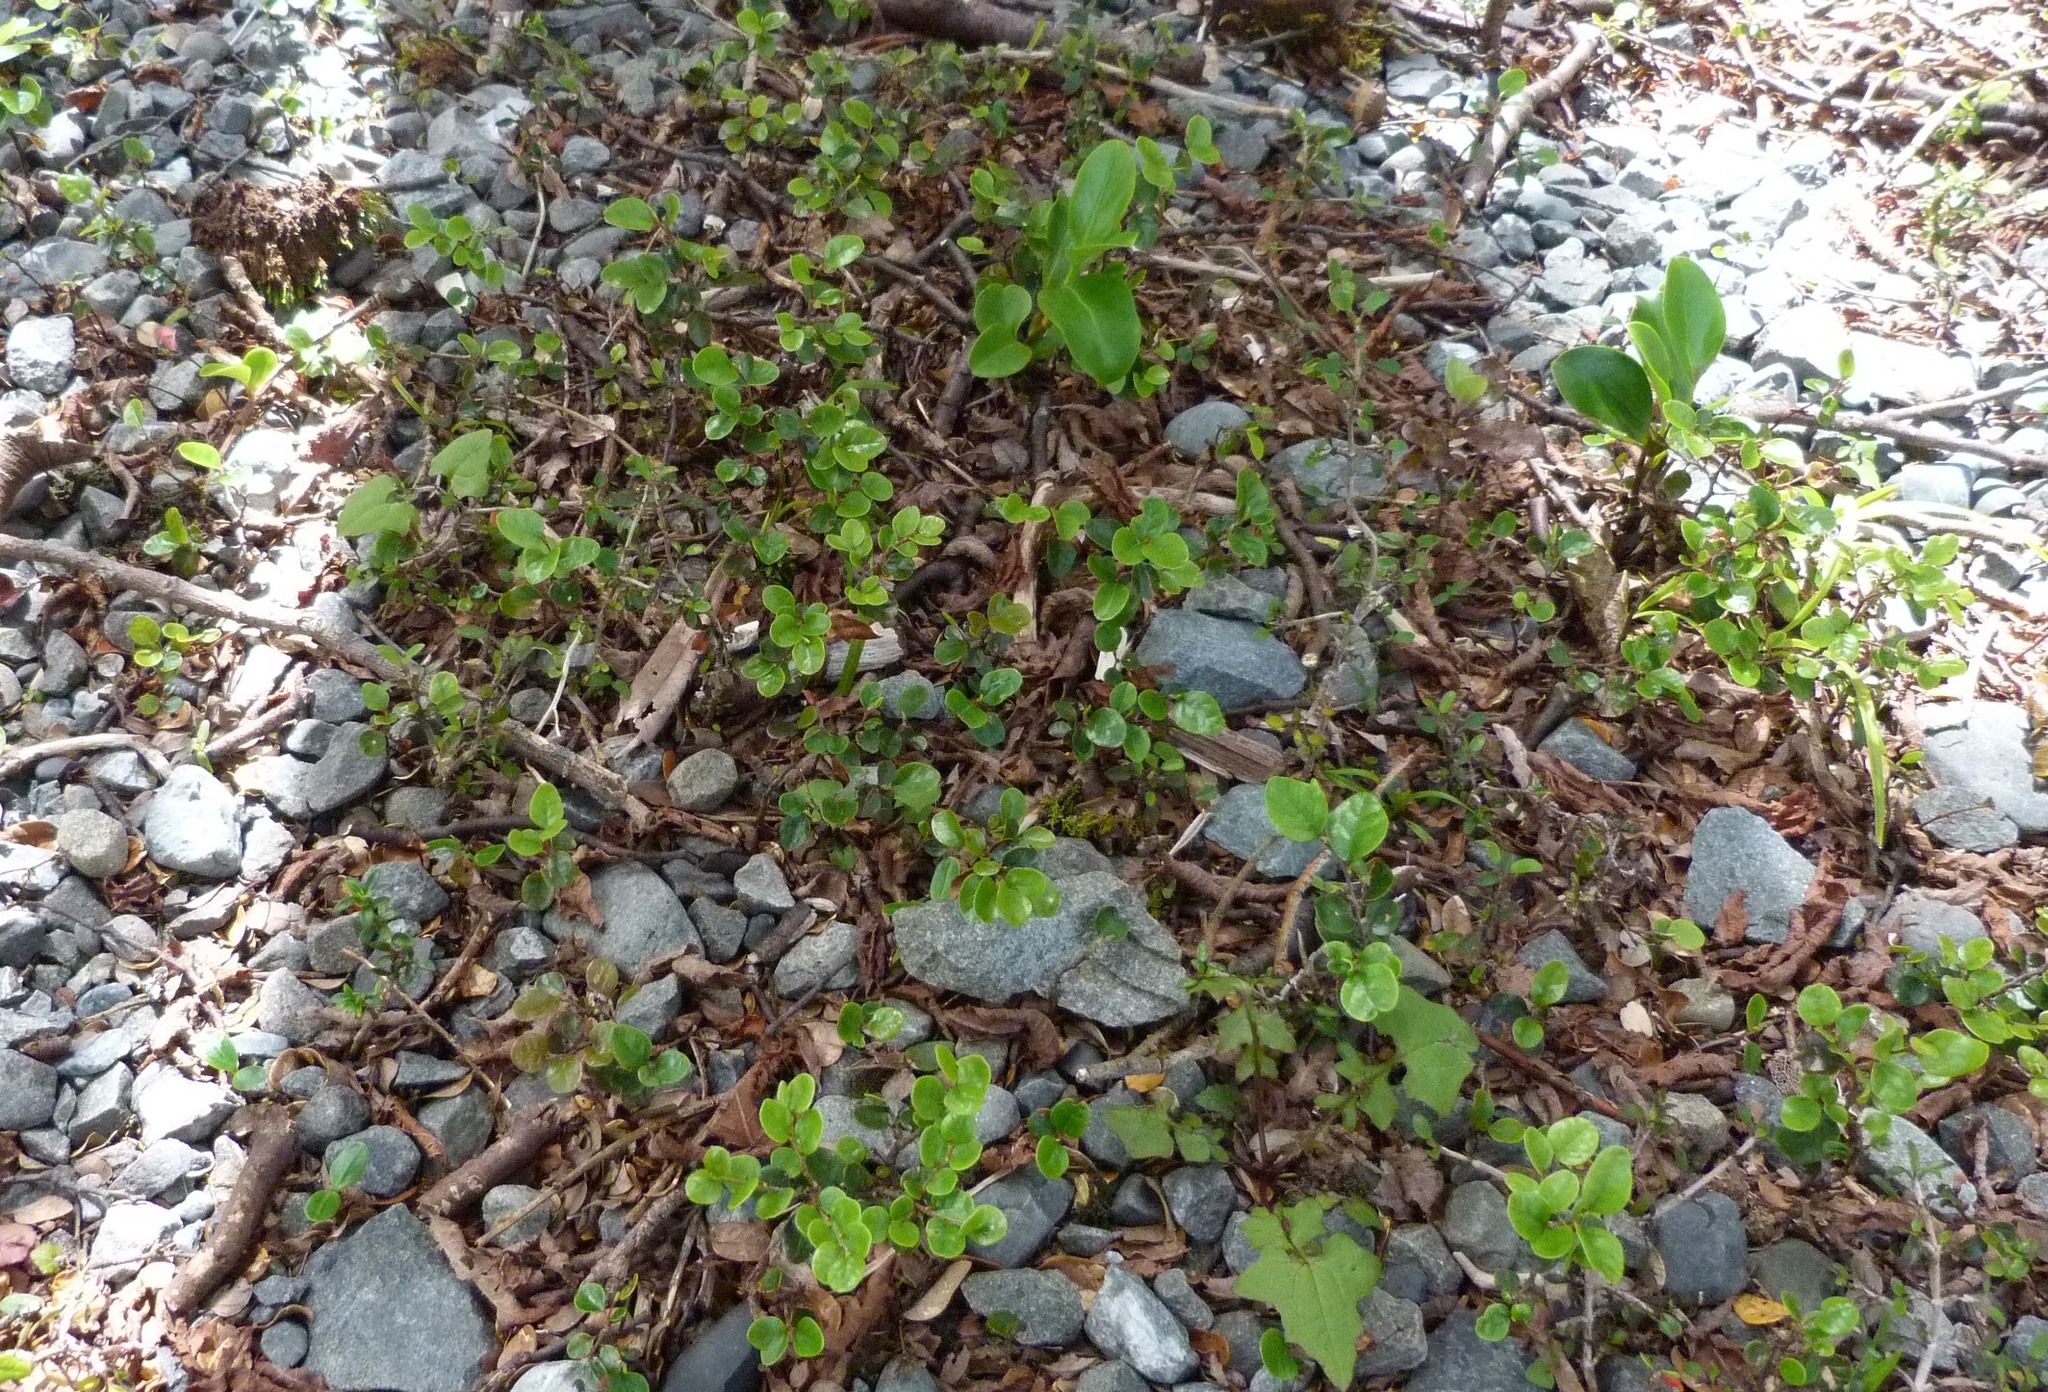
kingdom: Plantae
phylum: Tracheophyta
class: Magnoliopsida
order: Fagales
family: Nothofagaceae
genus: Nothofagus
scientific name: Nothofagus cliffortioides
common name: Mountain beech
